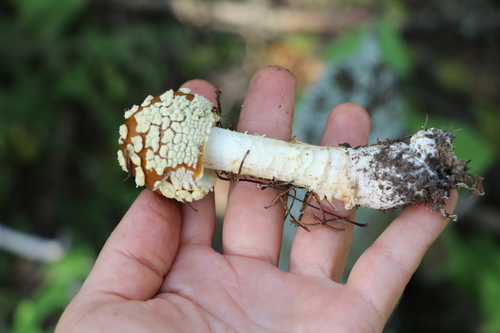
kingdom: Fungi
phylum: Basidiomycota
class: Agaricomycetes
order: Agaricales
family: Amanitaceae
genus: Amanita
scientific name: Amanita regalis
